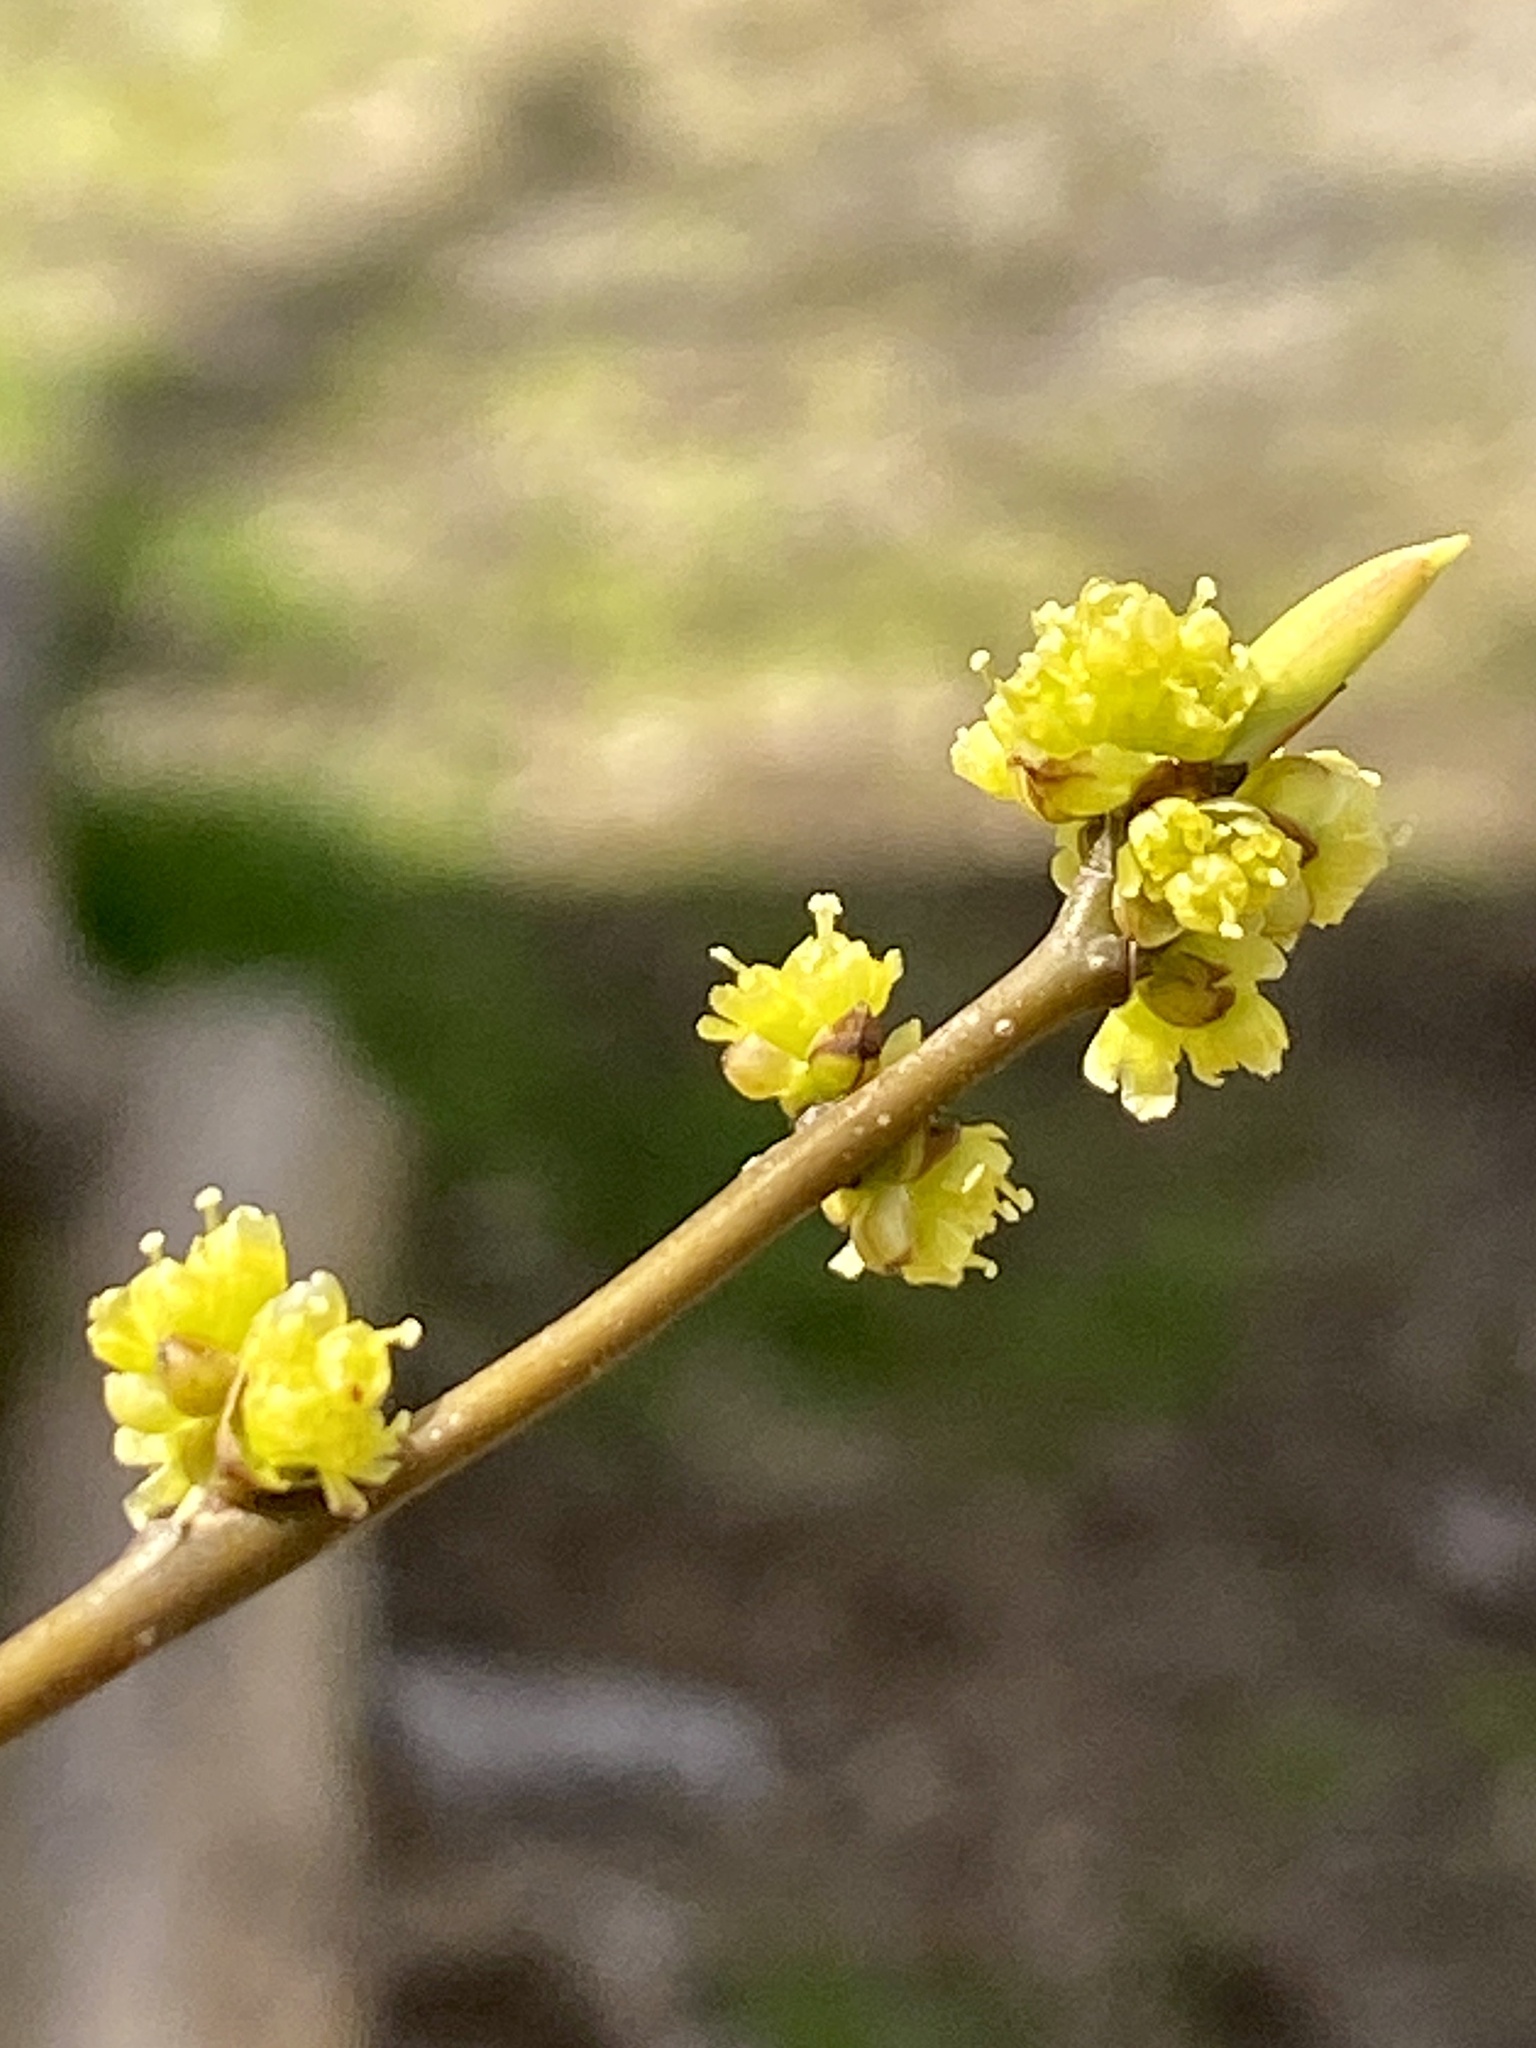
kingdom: Plantae
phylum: Tracheophyta
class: Magnoliopsida
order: Laurales
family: Lauraceae
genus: Lindera
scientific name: Lindera benzoin
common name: Spicebush
